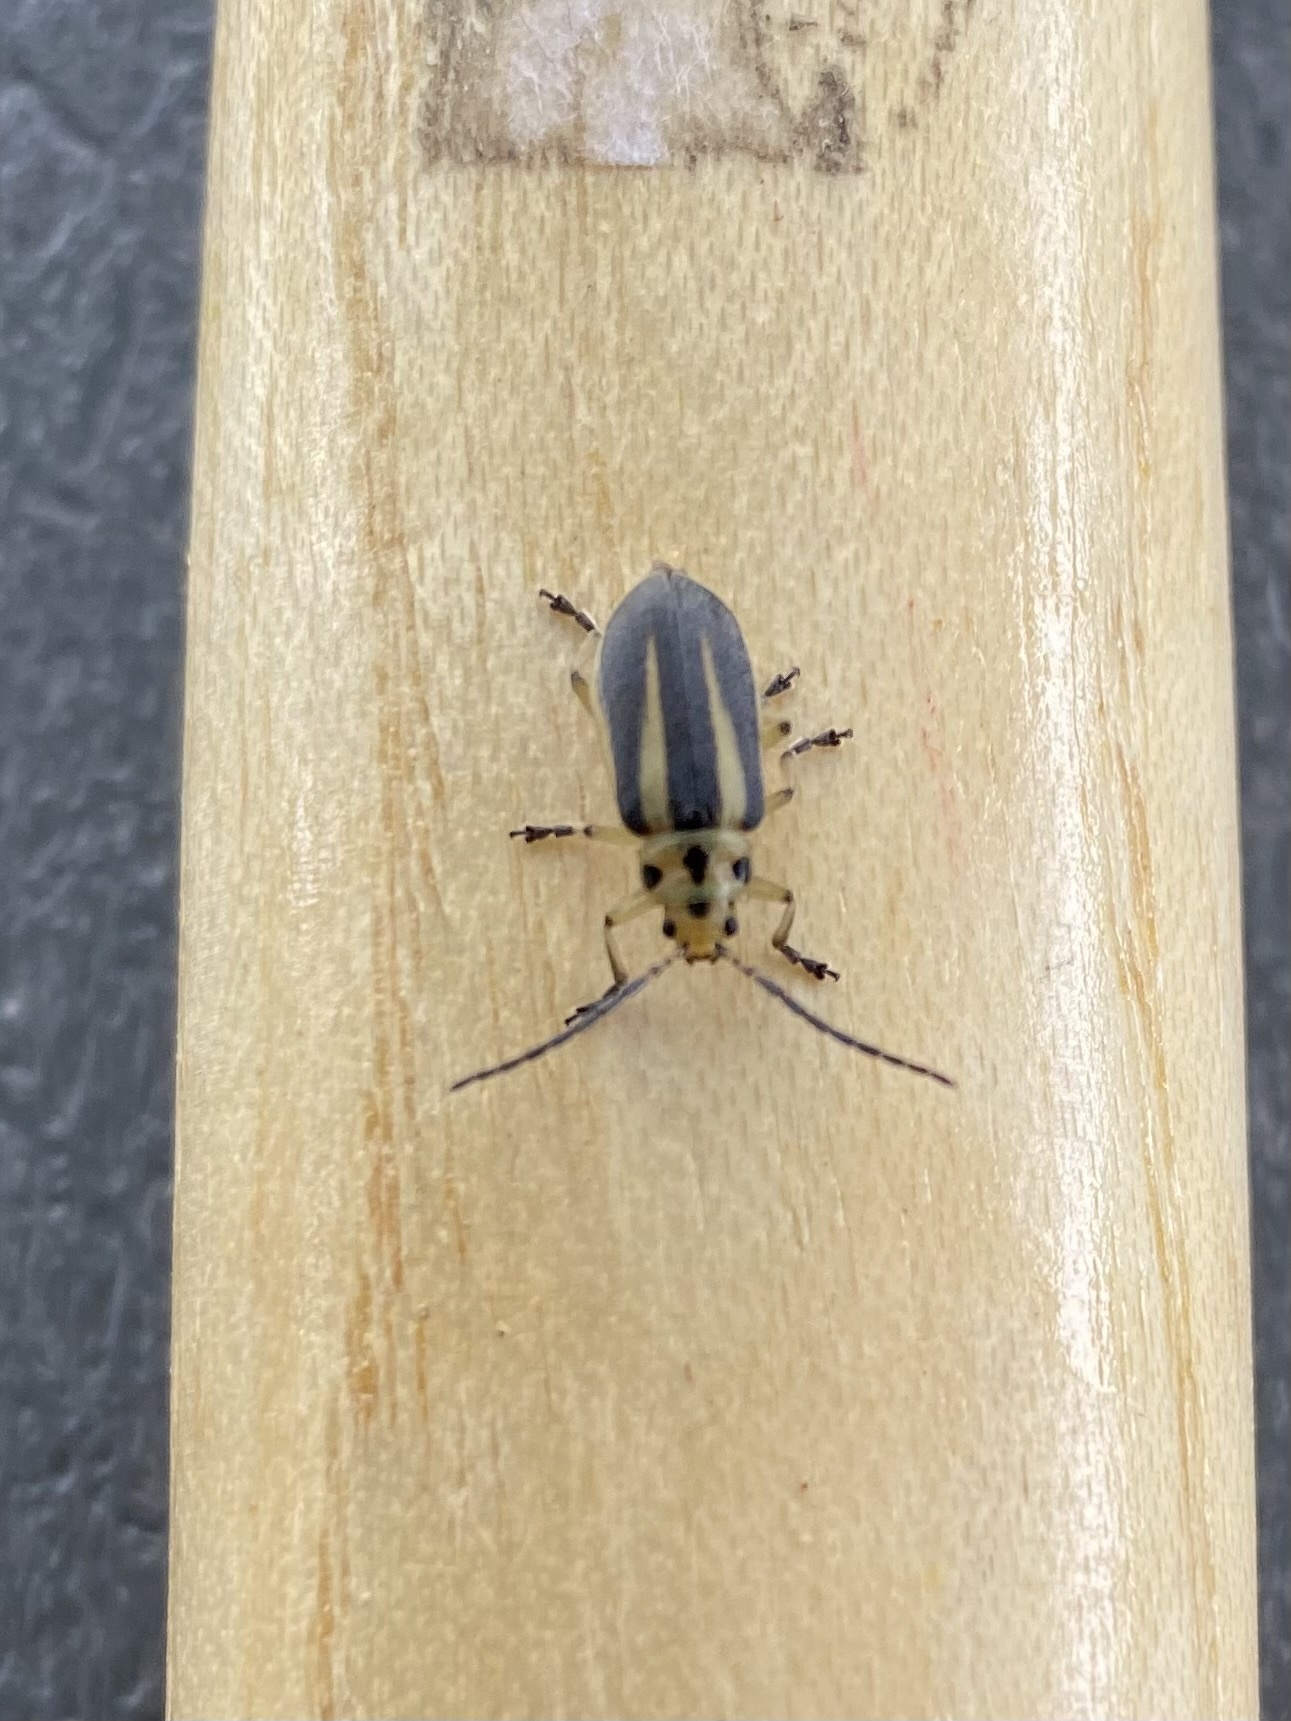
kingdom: Animalia
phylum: Arthropoda
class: Insecta
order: Coleoptera
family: Chrysomelidae
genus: Trirhabda
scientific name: Trirhabda bacharidis
